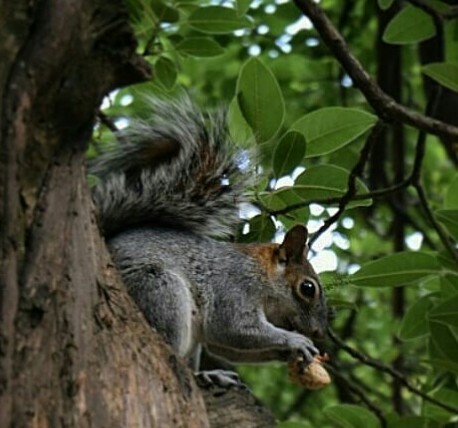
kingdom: Animalia
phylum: Chordata
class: Mammalia
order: Rodentia
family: Sciuridae
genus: Sciurus
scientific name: Sciurus aureogaster
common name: Red-bellied squirrel
